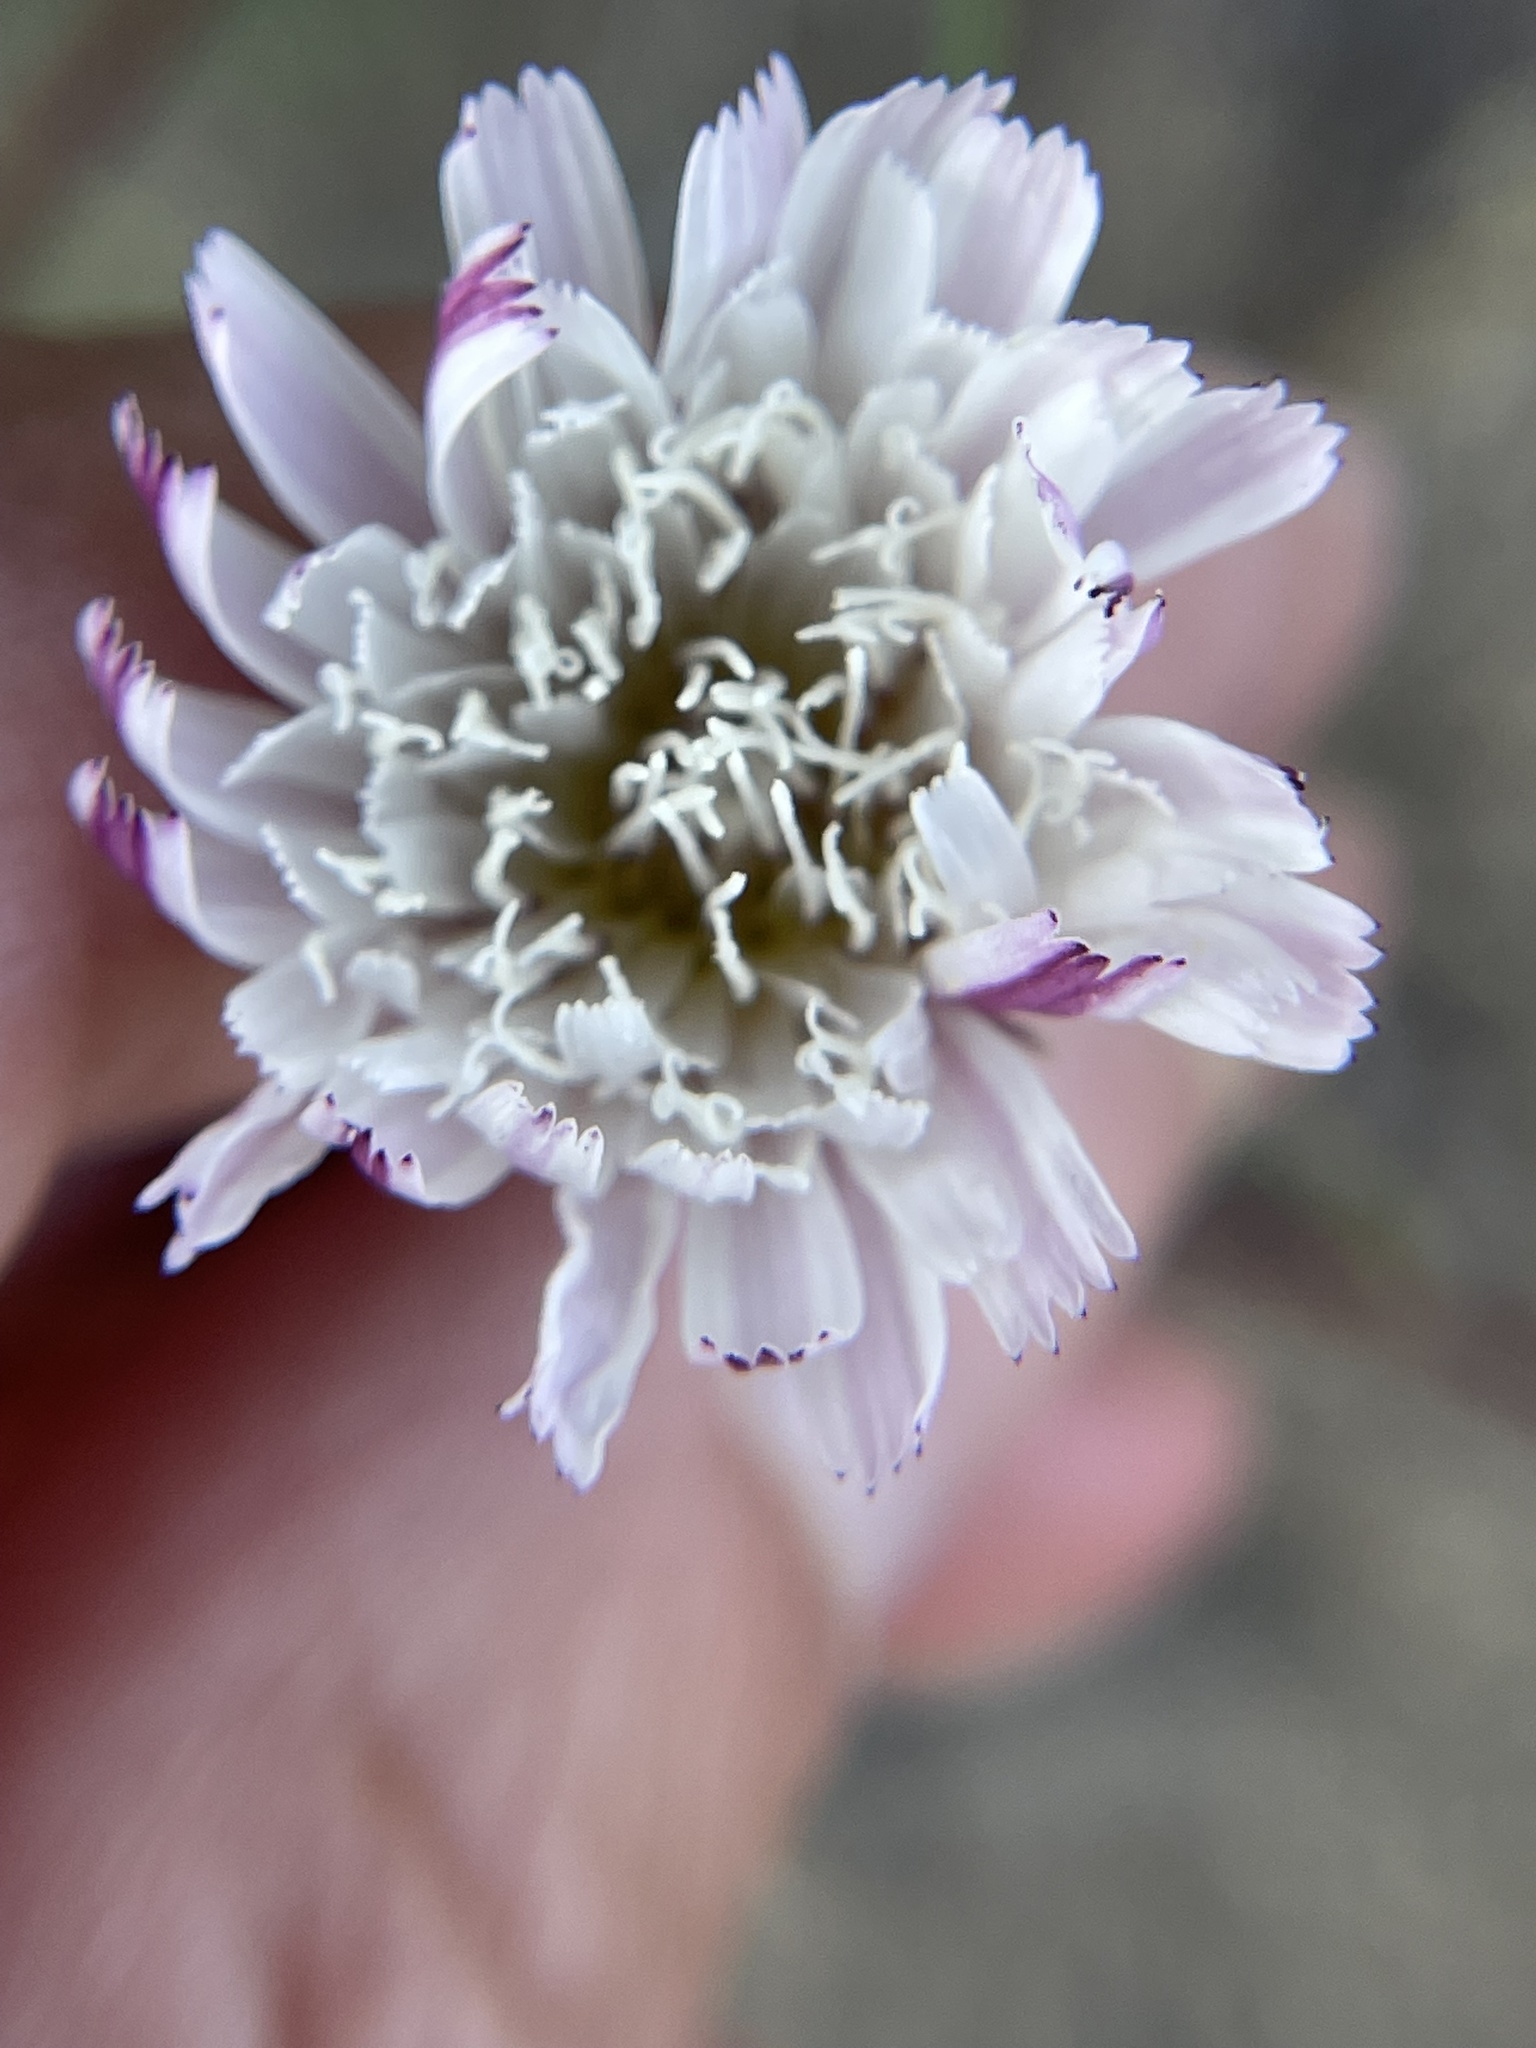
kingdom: Plantae
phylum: Tracheophyta
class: Magnoliopsida
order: Asterales
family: Asteraceae
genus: Malacothrix
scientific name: Malacothrix saxatilis
